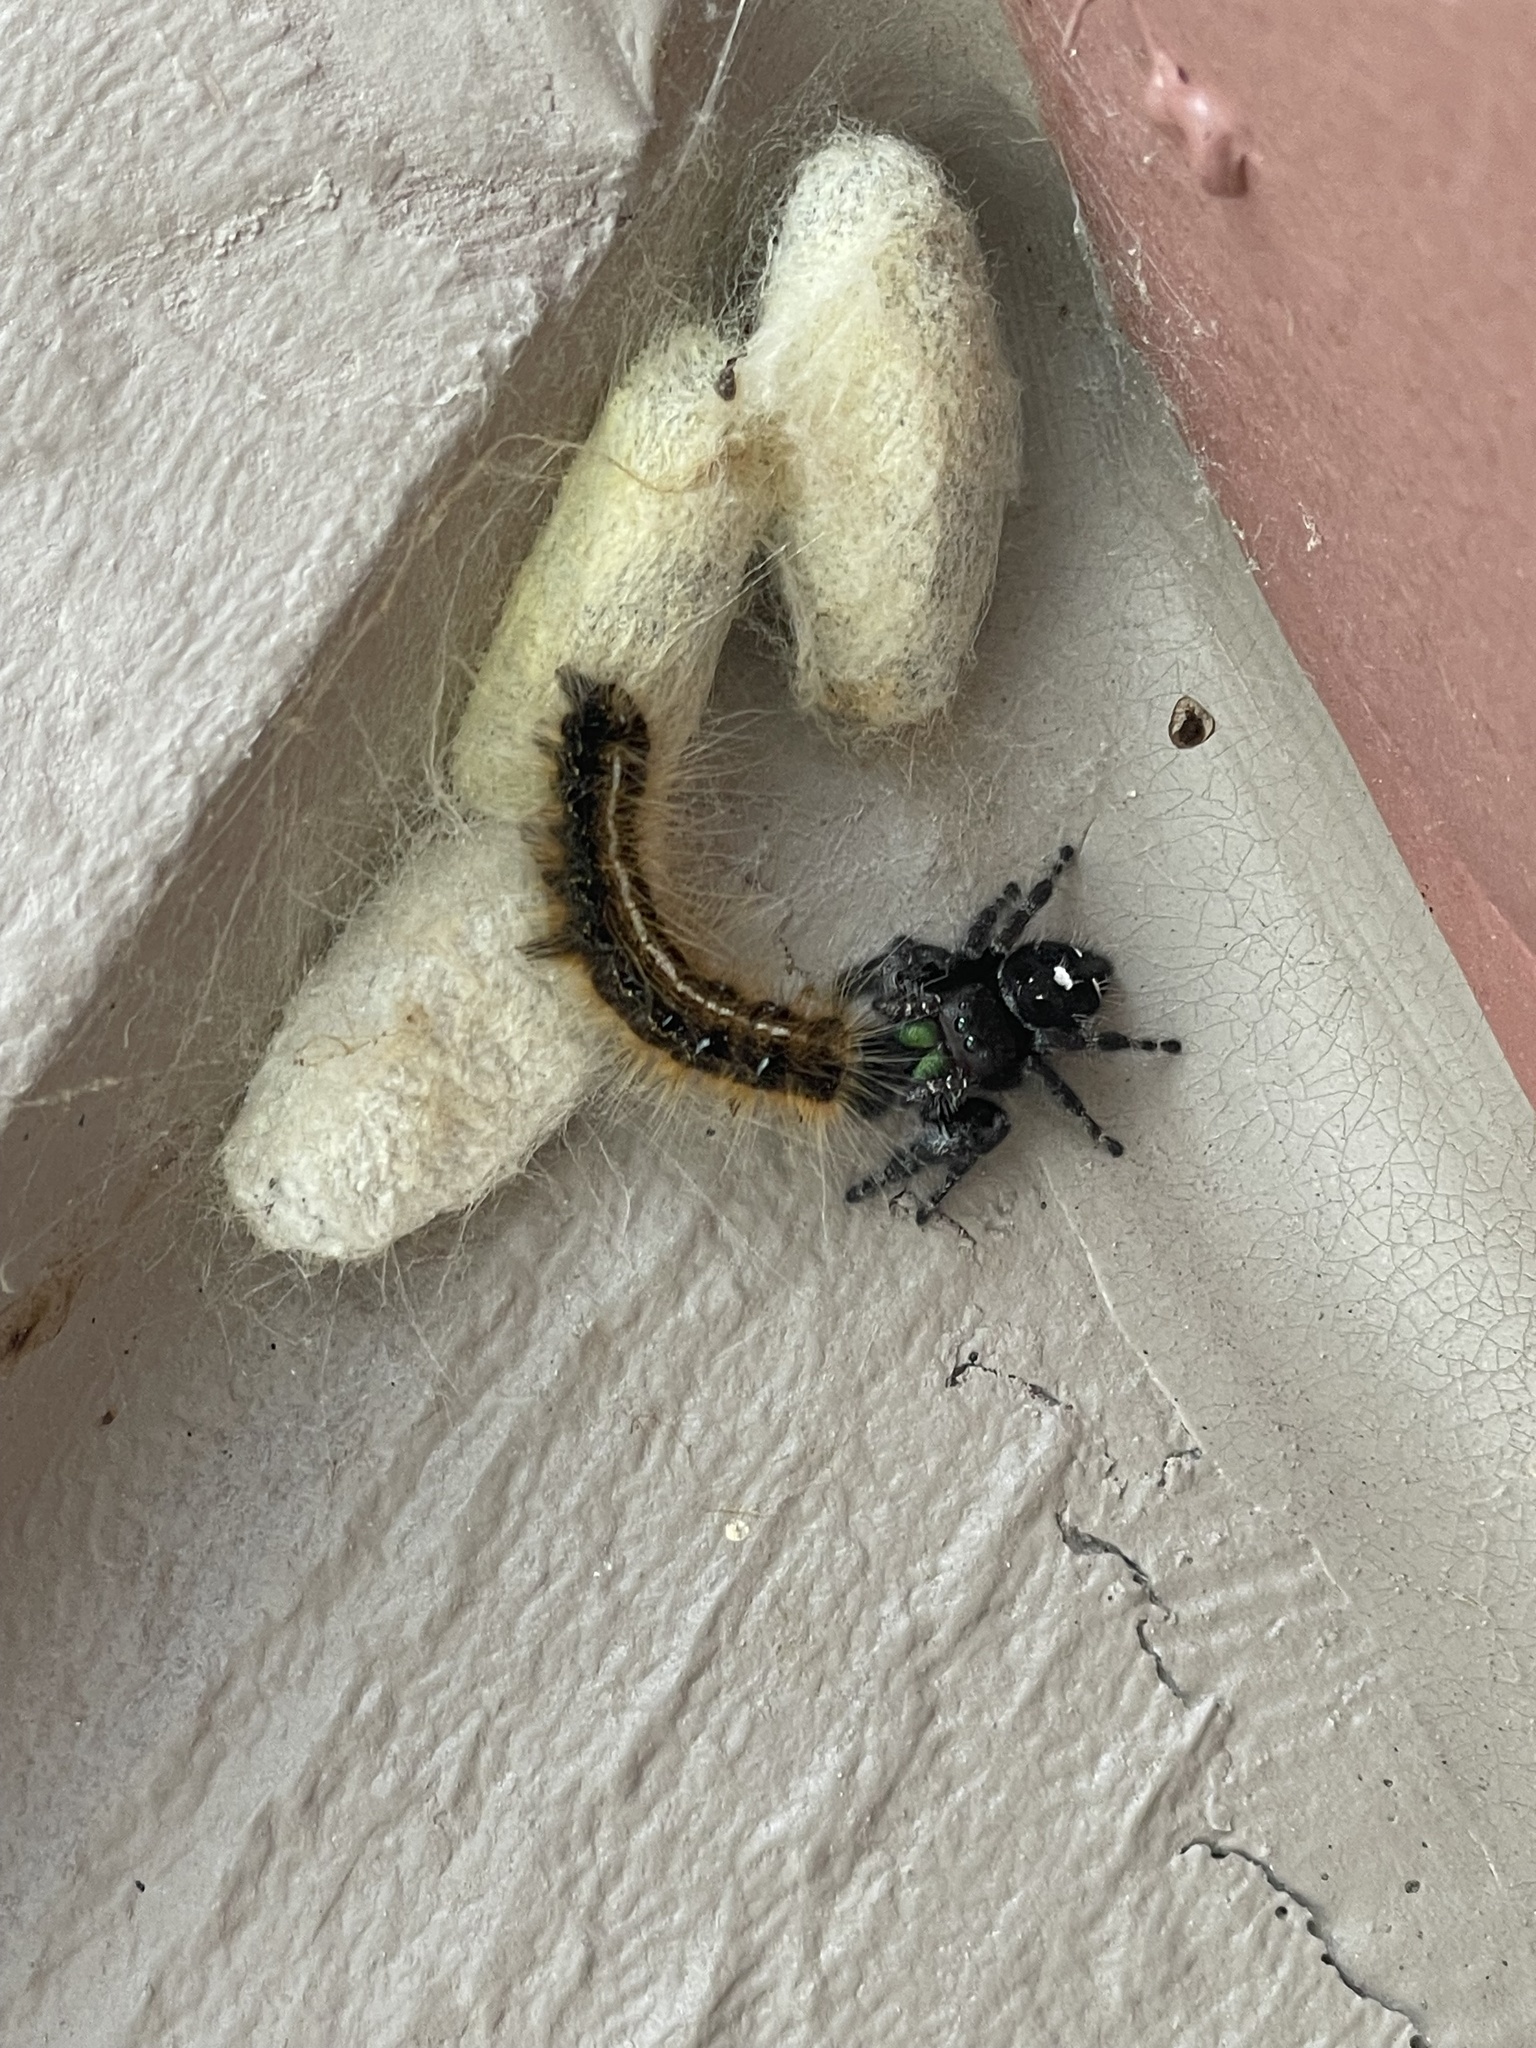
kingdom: Animalia
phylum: Arthropoda
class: Insecta
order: Lepidoptera
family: Lasiocampidae
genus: Malacosoma
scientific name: Malacosoma americana
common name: Eastern tent caterpillar moth
